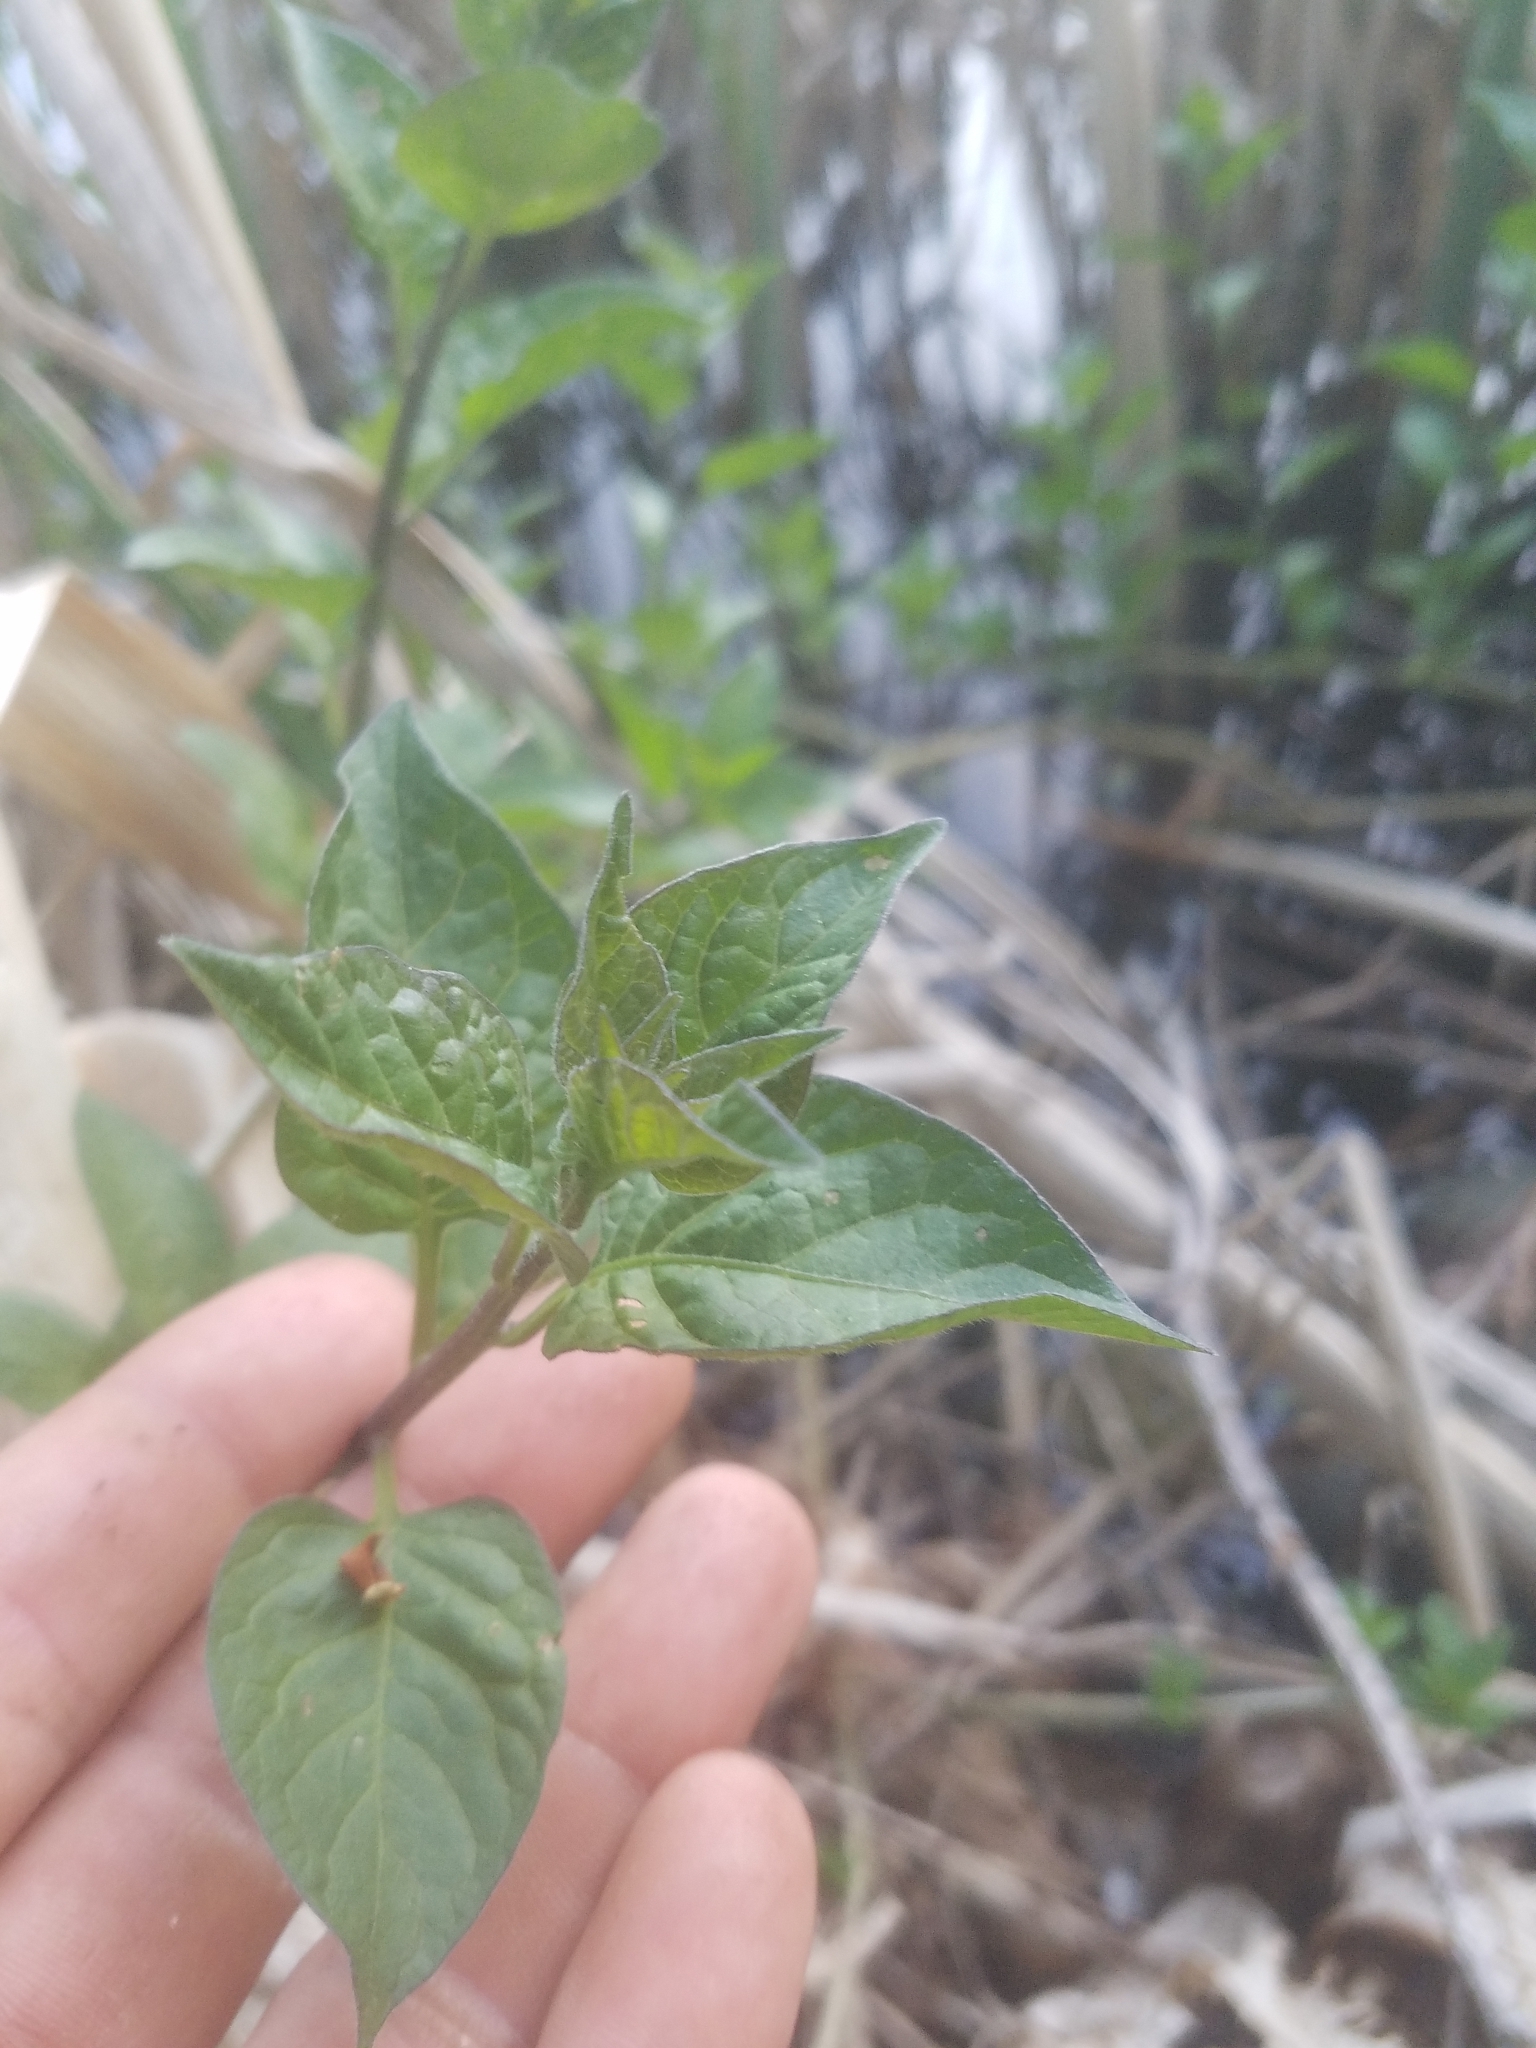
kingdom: Plantae
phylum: Tracheophyta
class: Magnoliopsida
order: Solanales
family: Solanaceae
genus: Solanum
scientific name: Solanum dulcamara
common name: Climbing nightshade
